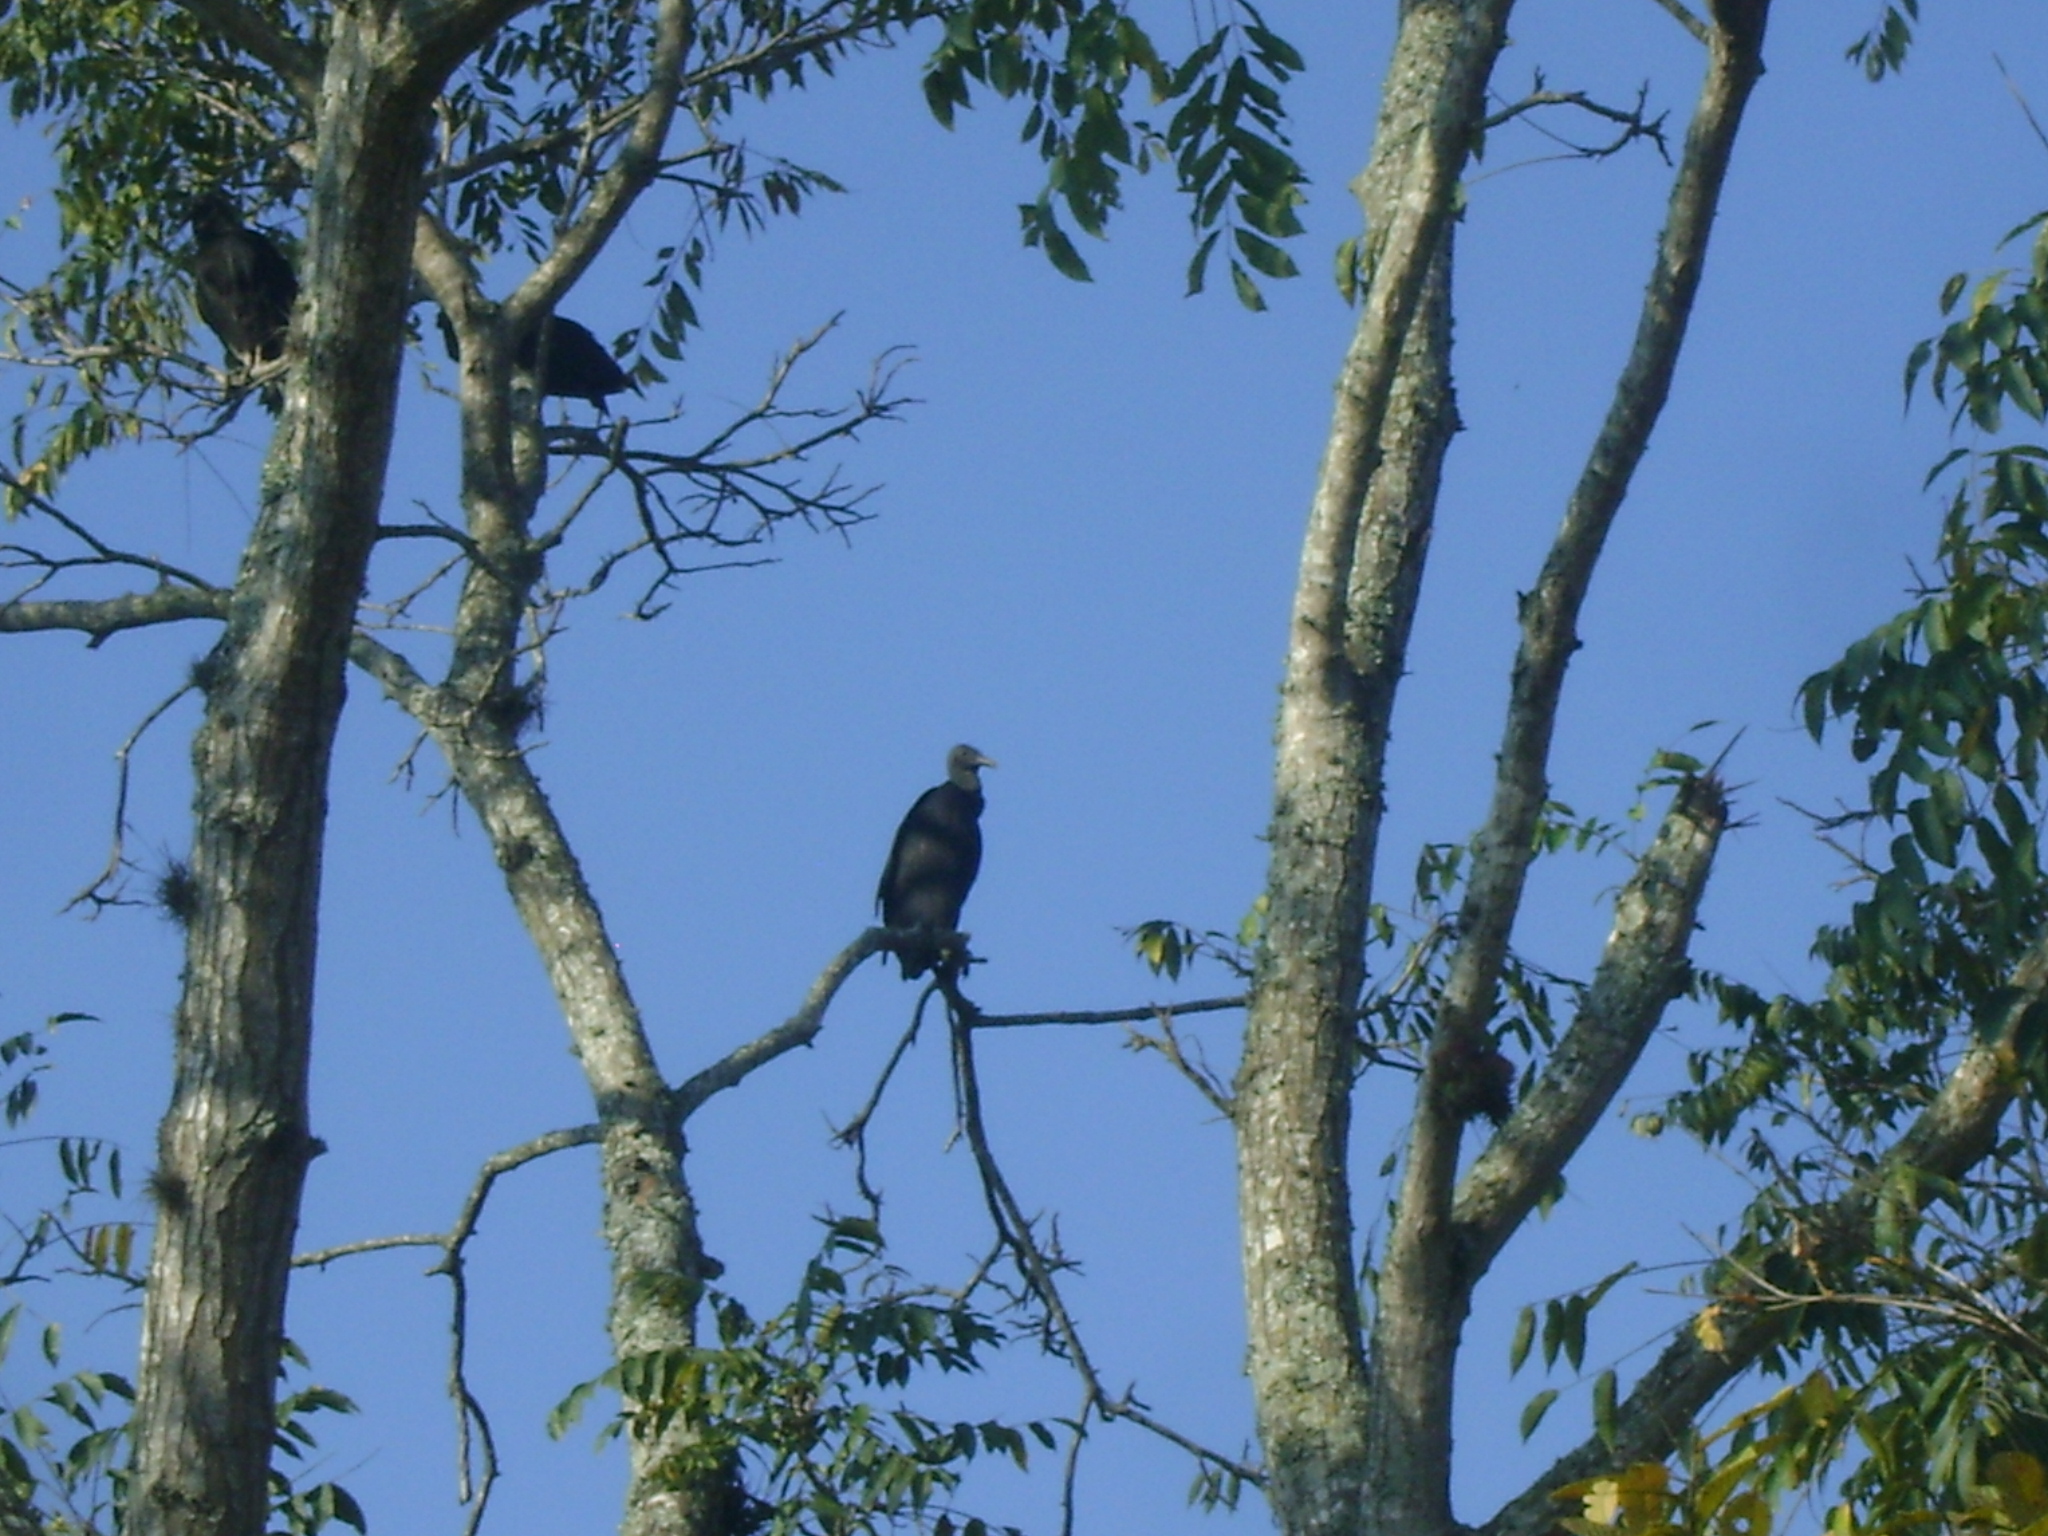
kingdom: Animalia
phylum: Chordata
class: Aves
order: Accipitriformes
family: Cathartidae
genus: Coragyps
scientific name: Coragyps atratus
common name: Black vulture
